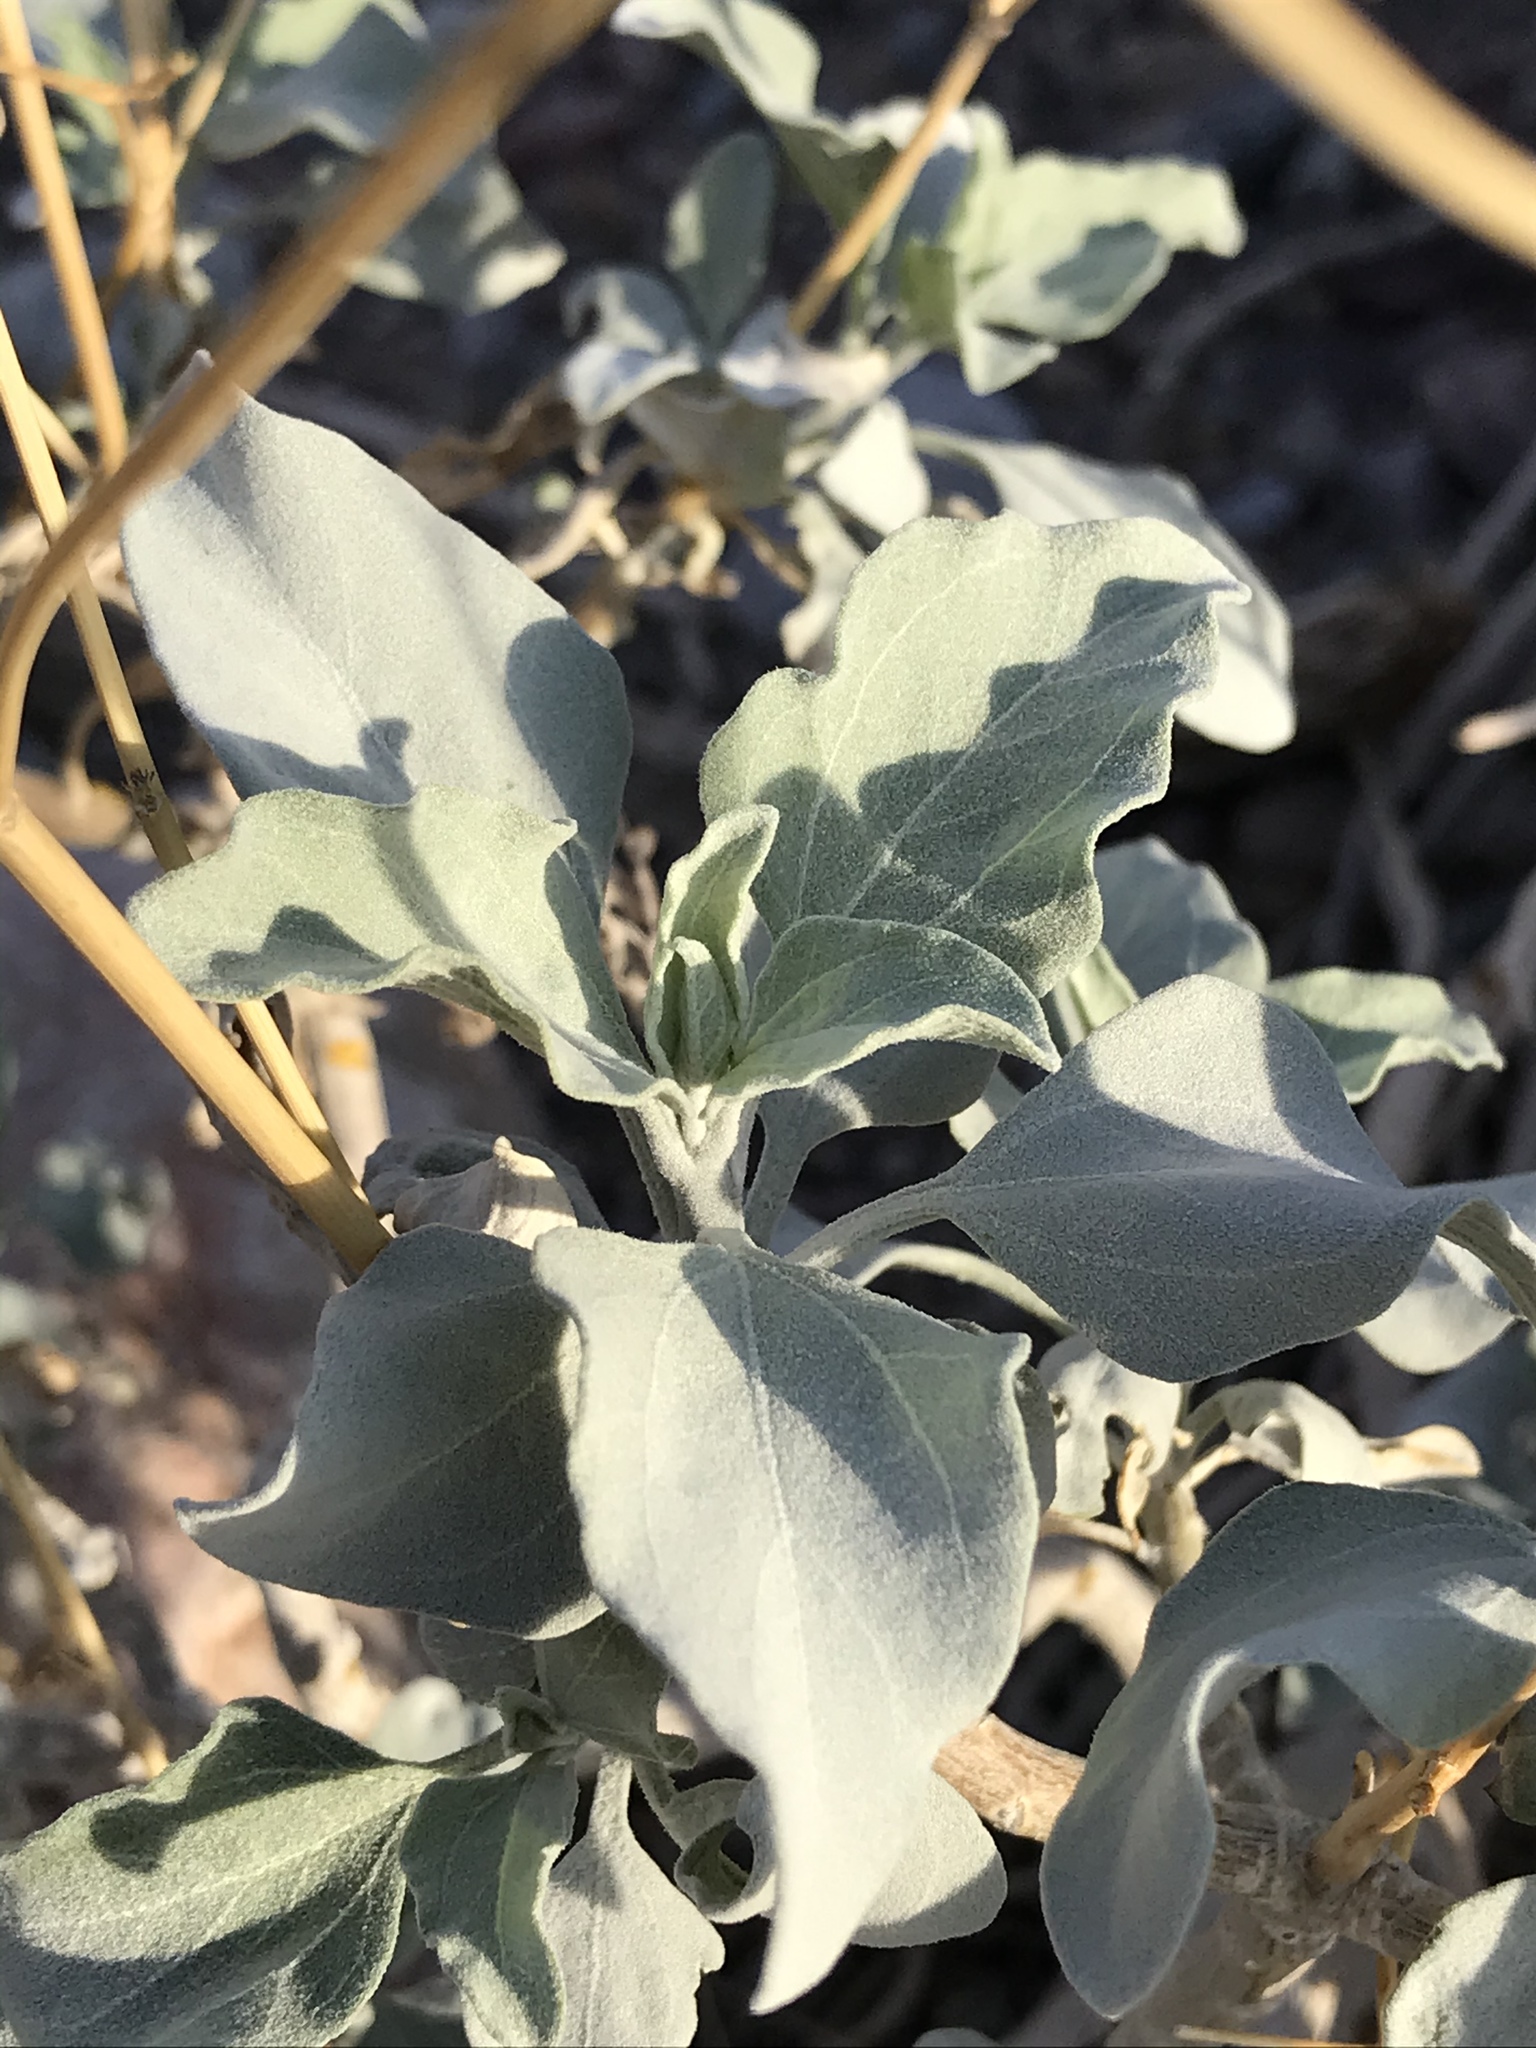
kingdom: Plantae
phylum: Tracheophyta
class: Magnoliopsida
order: Asterales
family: Asteraceae
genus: Encelia
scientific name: Encelia farinosa
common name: Brittlebush
